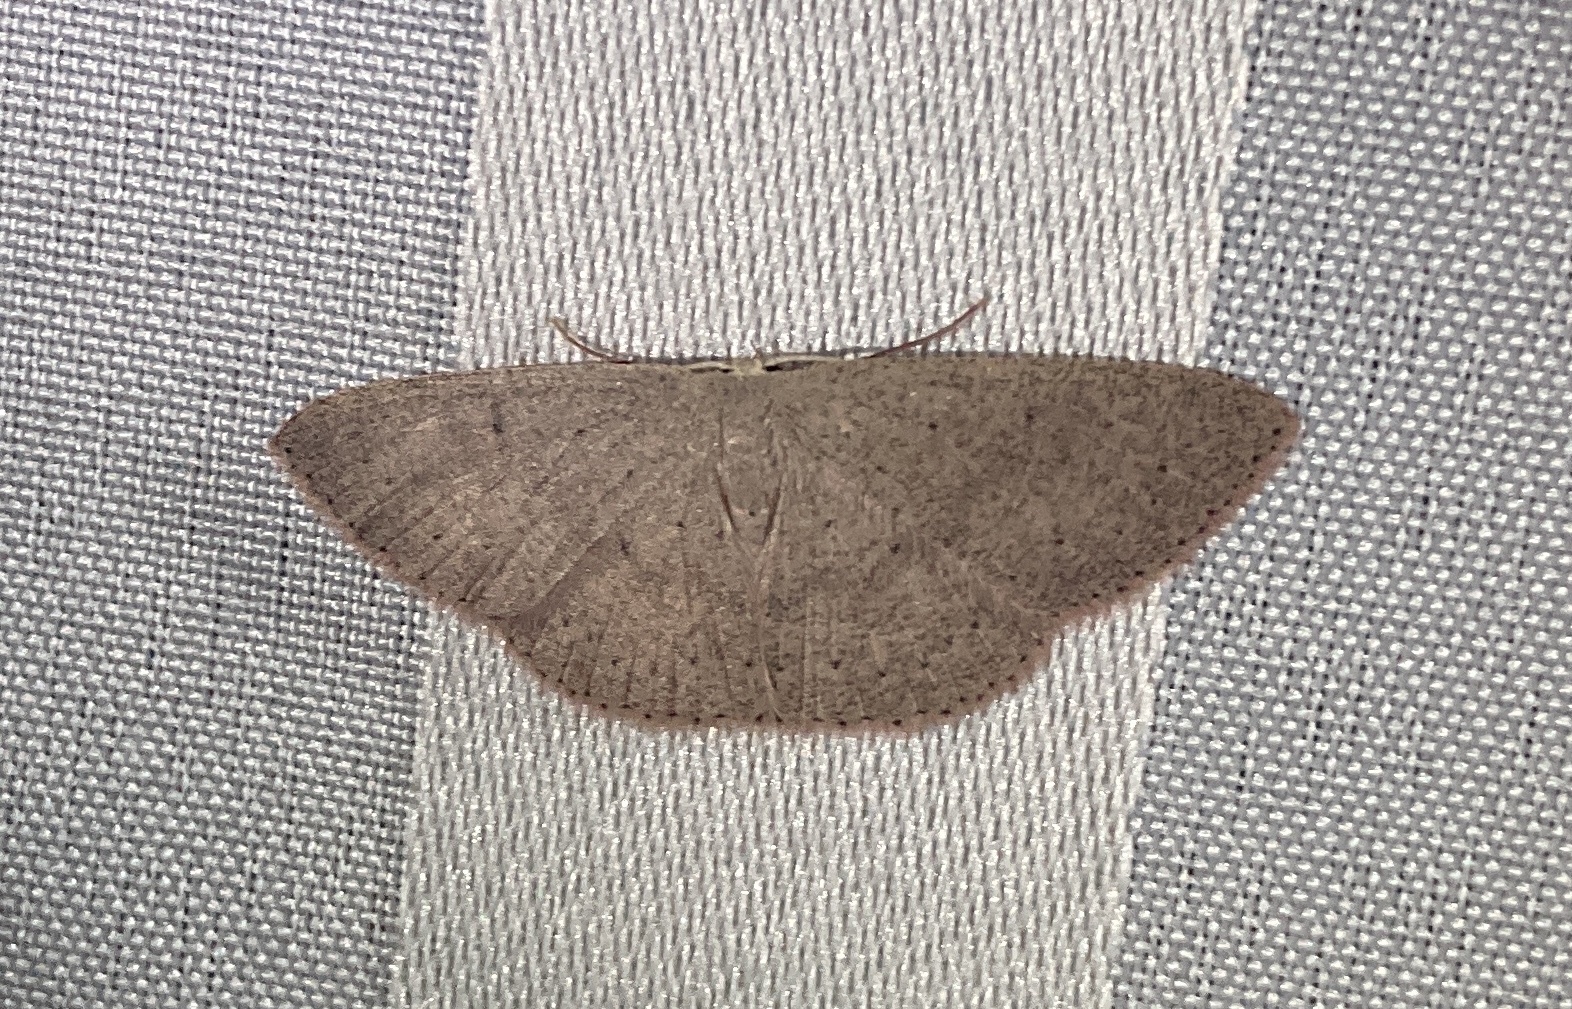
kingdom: Animalia
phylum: Arthropoda
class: Insecta
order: Lepidoptera
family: Geometridae
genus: Cyclophora
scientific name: Cyclophora obstataria
